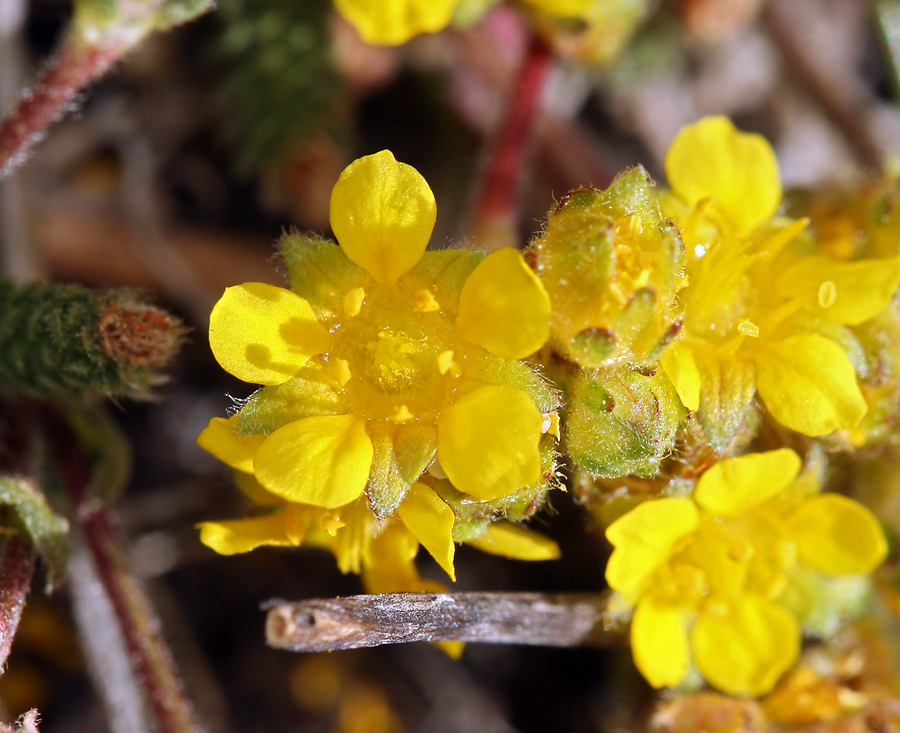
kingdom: Plantae
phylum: Tracheophyta
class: Magnoliopsida
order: Rosales
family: Rosaceae
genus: Potentilla
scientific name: Potentilla lycopodioides
